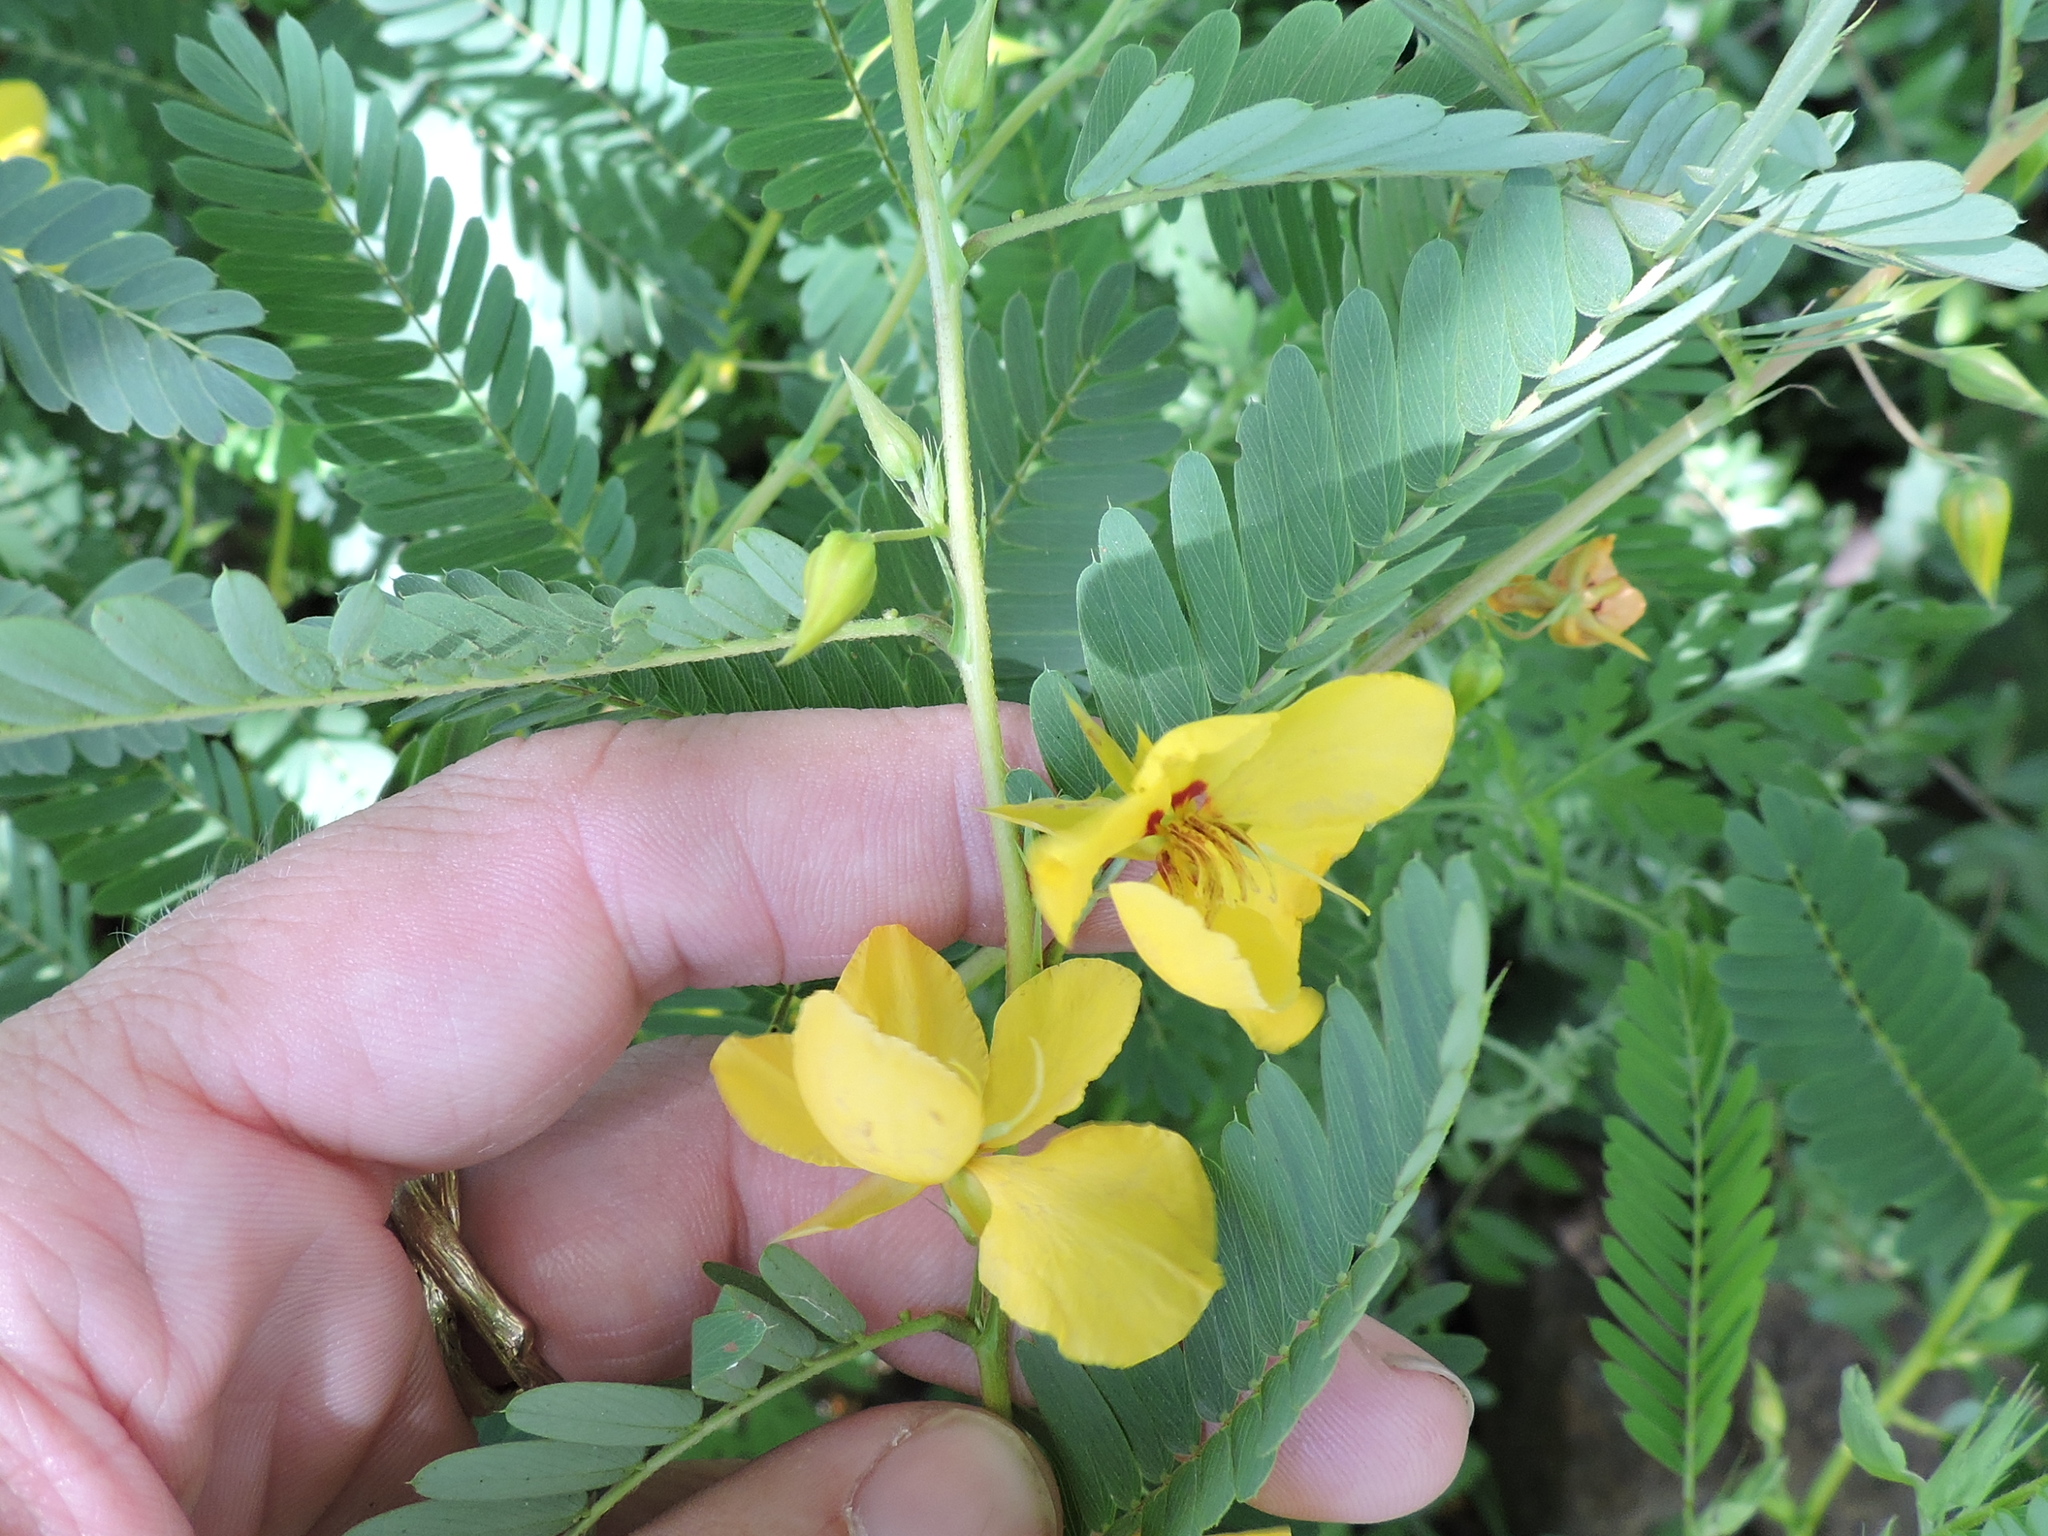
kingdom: Plantae
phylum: Tracheophyta
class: Magnoliopsida
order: Fabales
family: Fabaceae
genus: Chamaecrista
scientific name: Chamaecrista fasciculata
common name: Golden cassia
